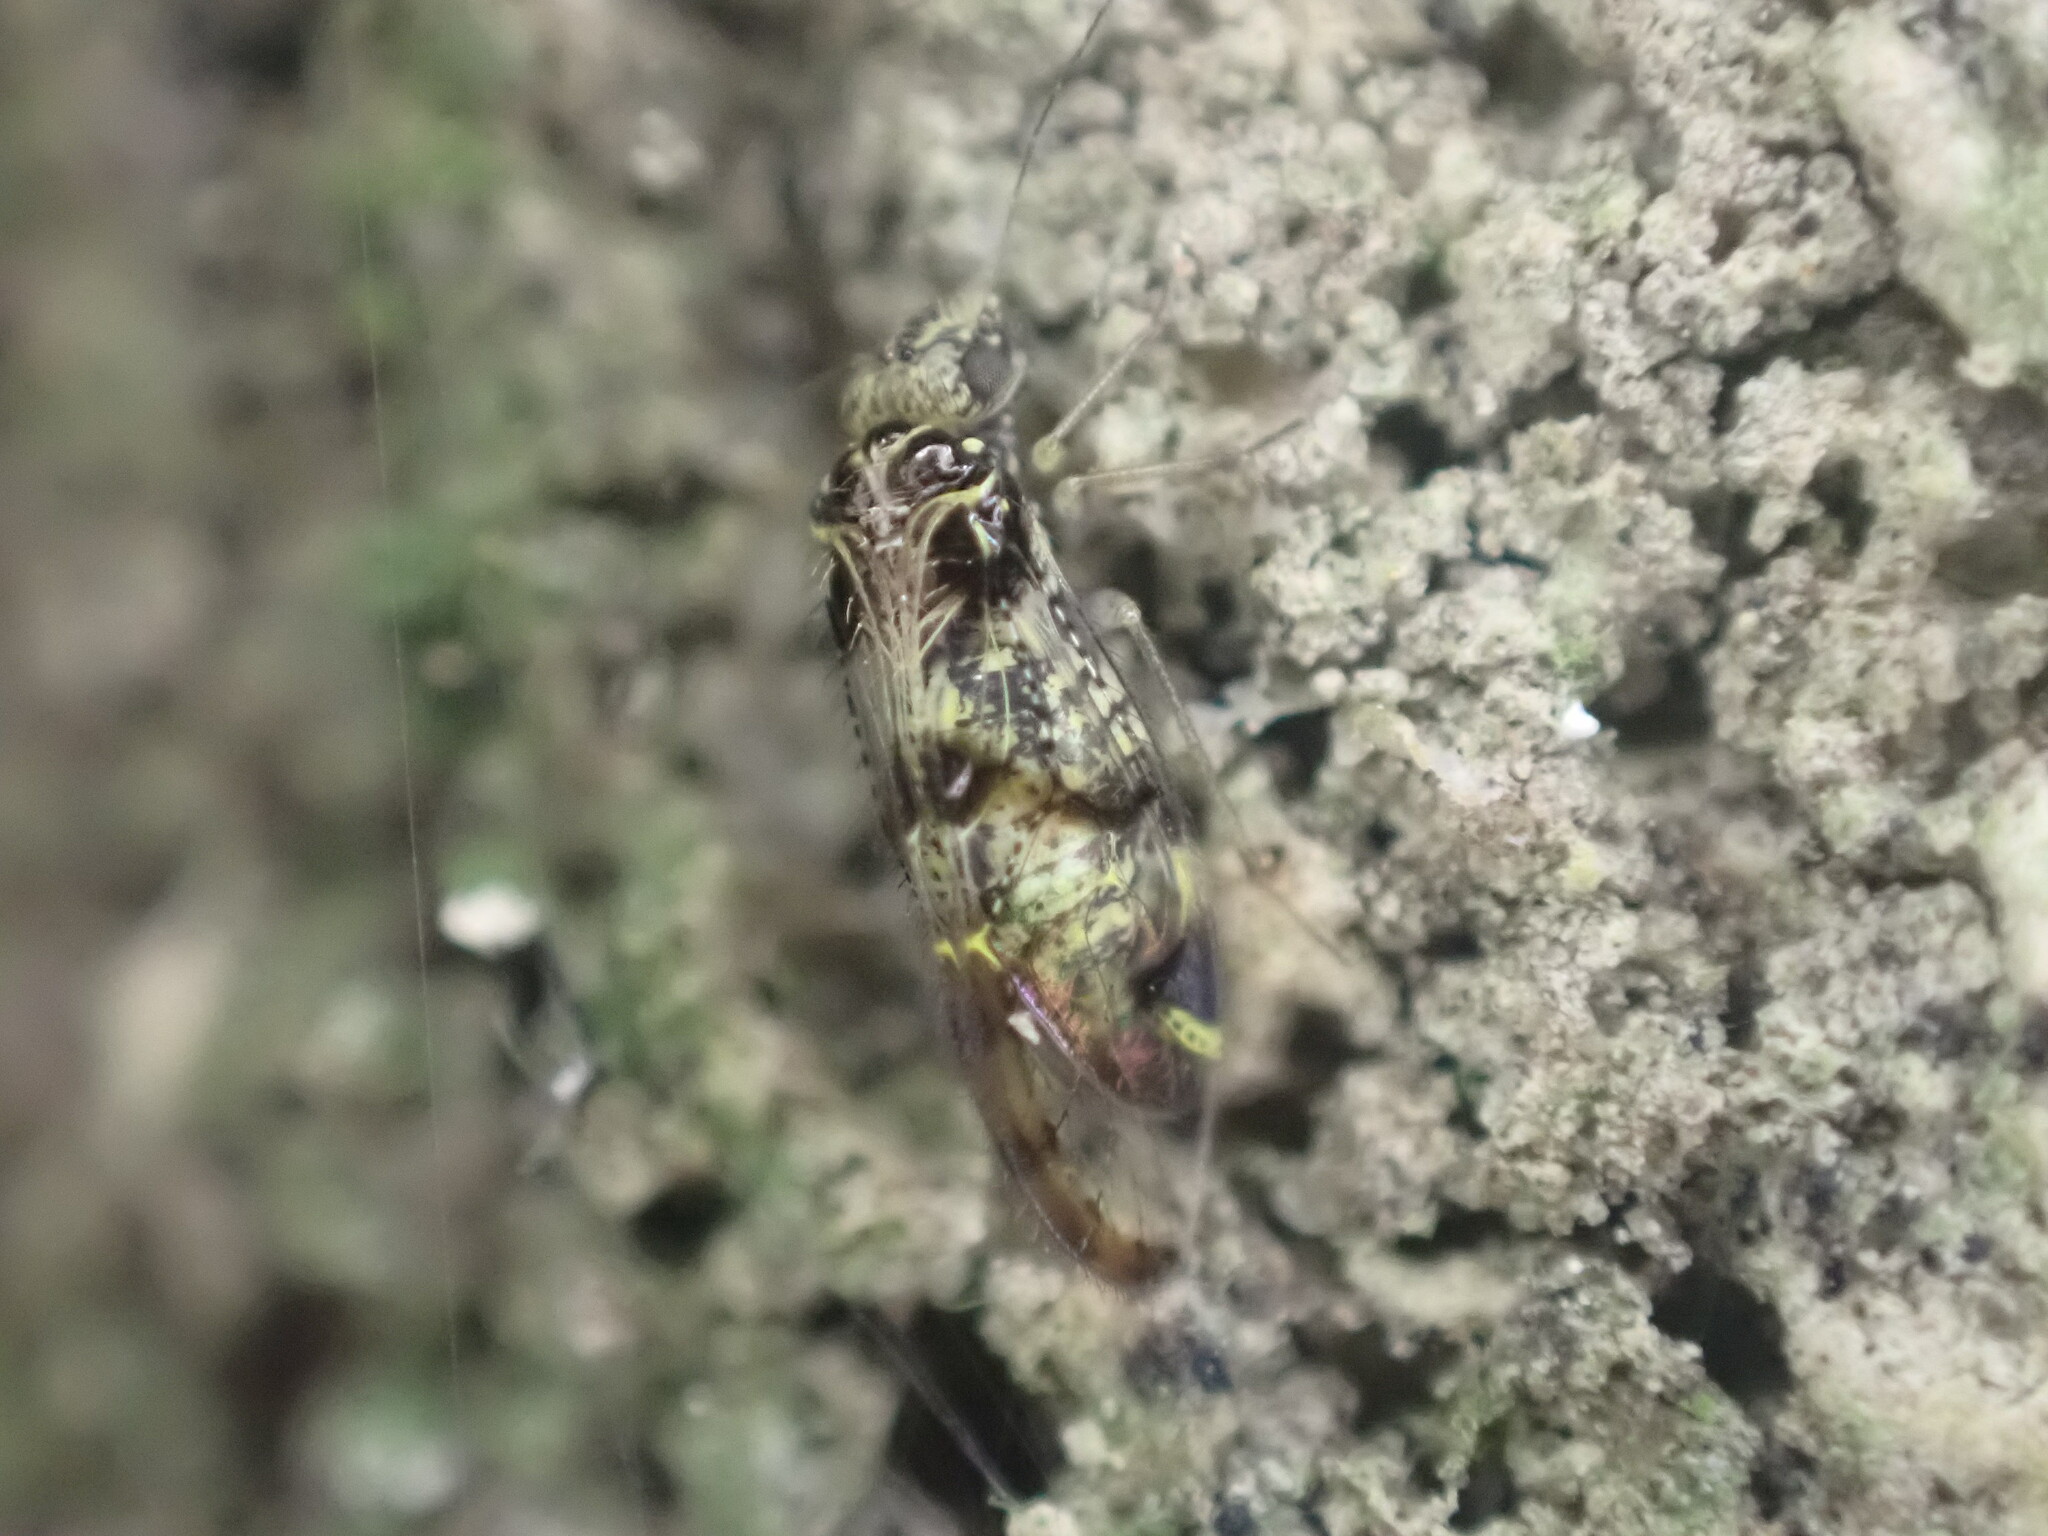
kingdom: Animalia
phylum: Arthropoda
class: Insecta
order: Psocodea
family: Philotarsidae
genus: Abelopsocus
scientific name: Abelopsocus basipunctatus
